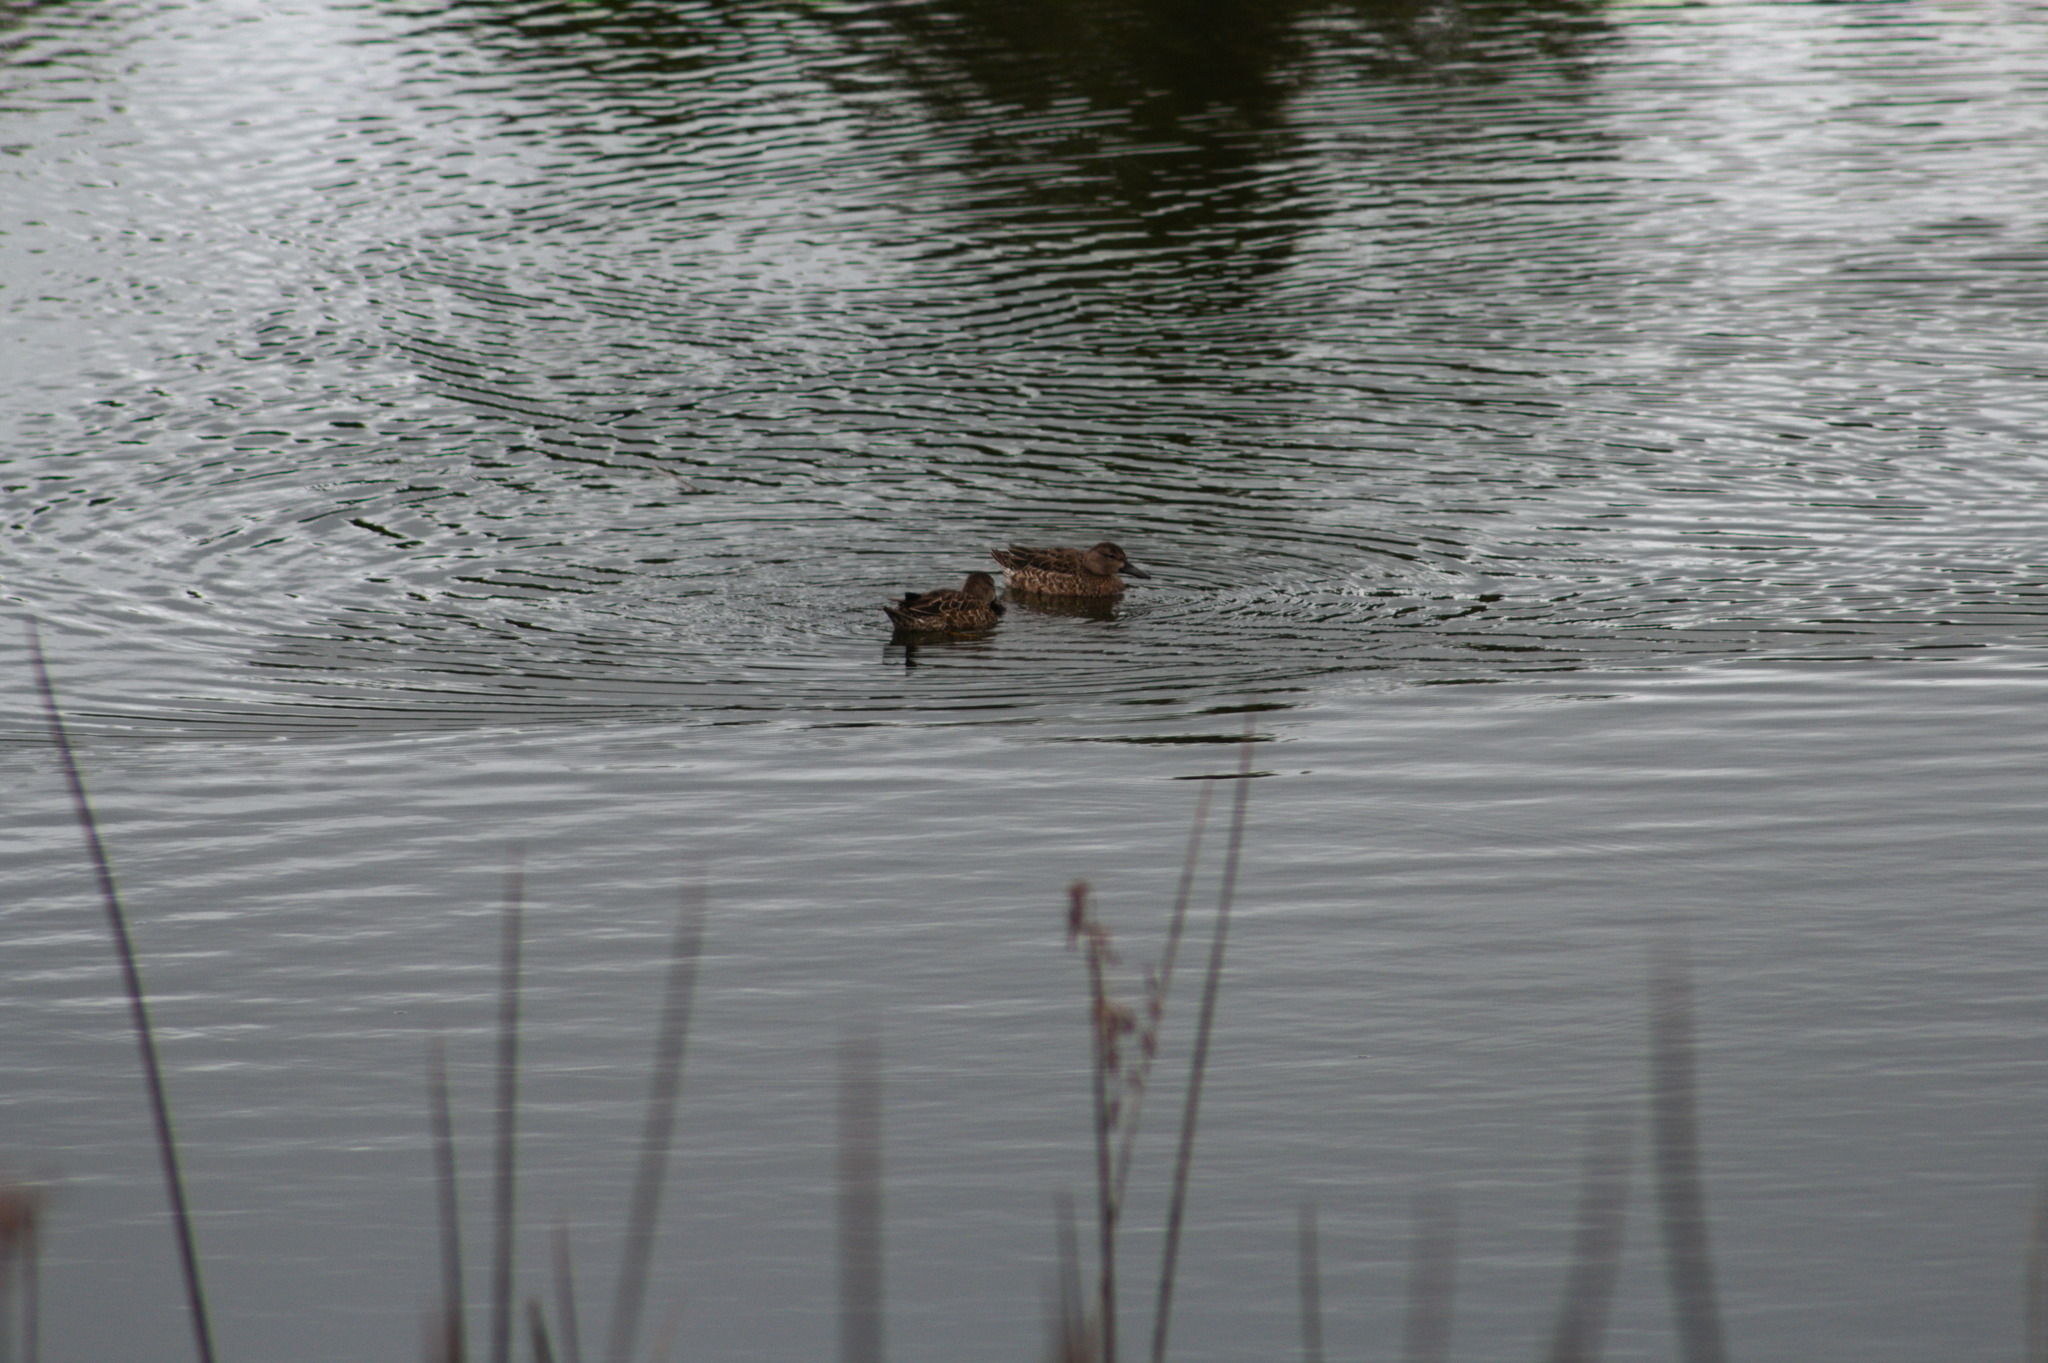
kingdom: Animalia
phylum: Chordata
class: Aves
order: Anseriformes
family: Anatidae
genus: Spatula
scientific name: Spatula discors
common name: Blue-winged teal
